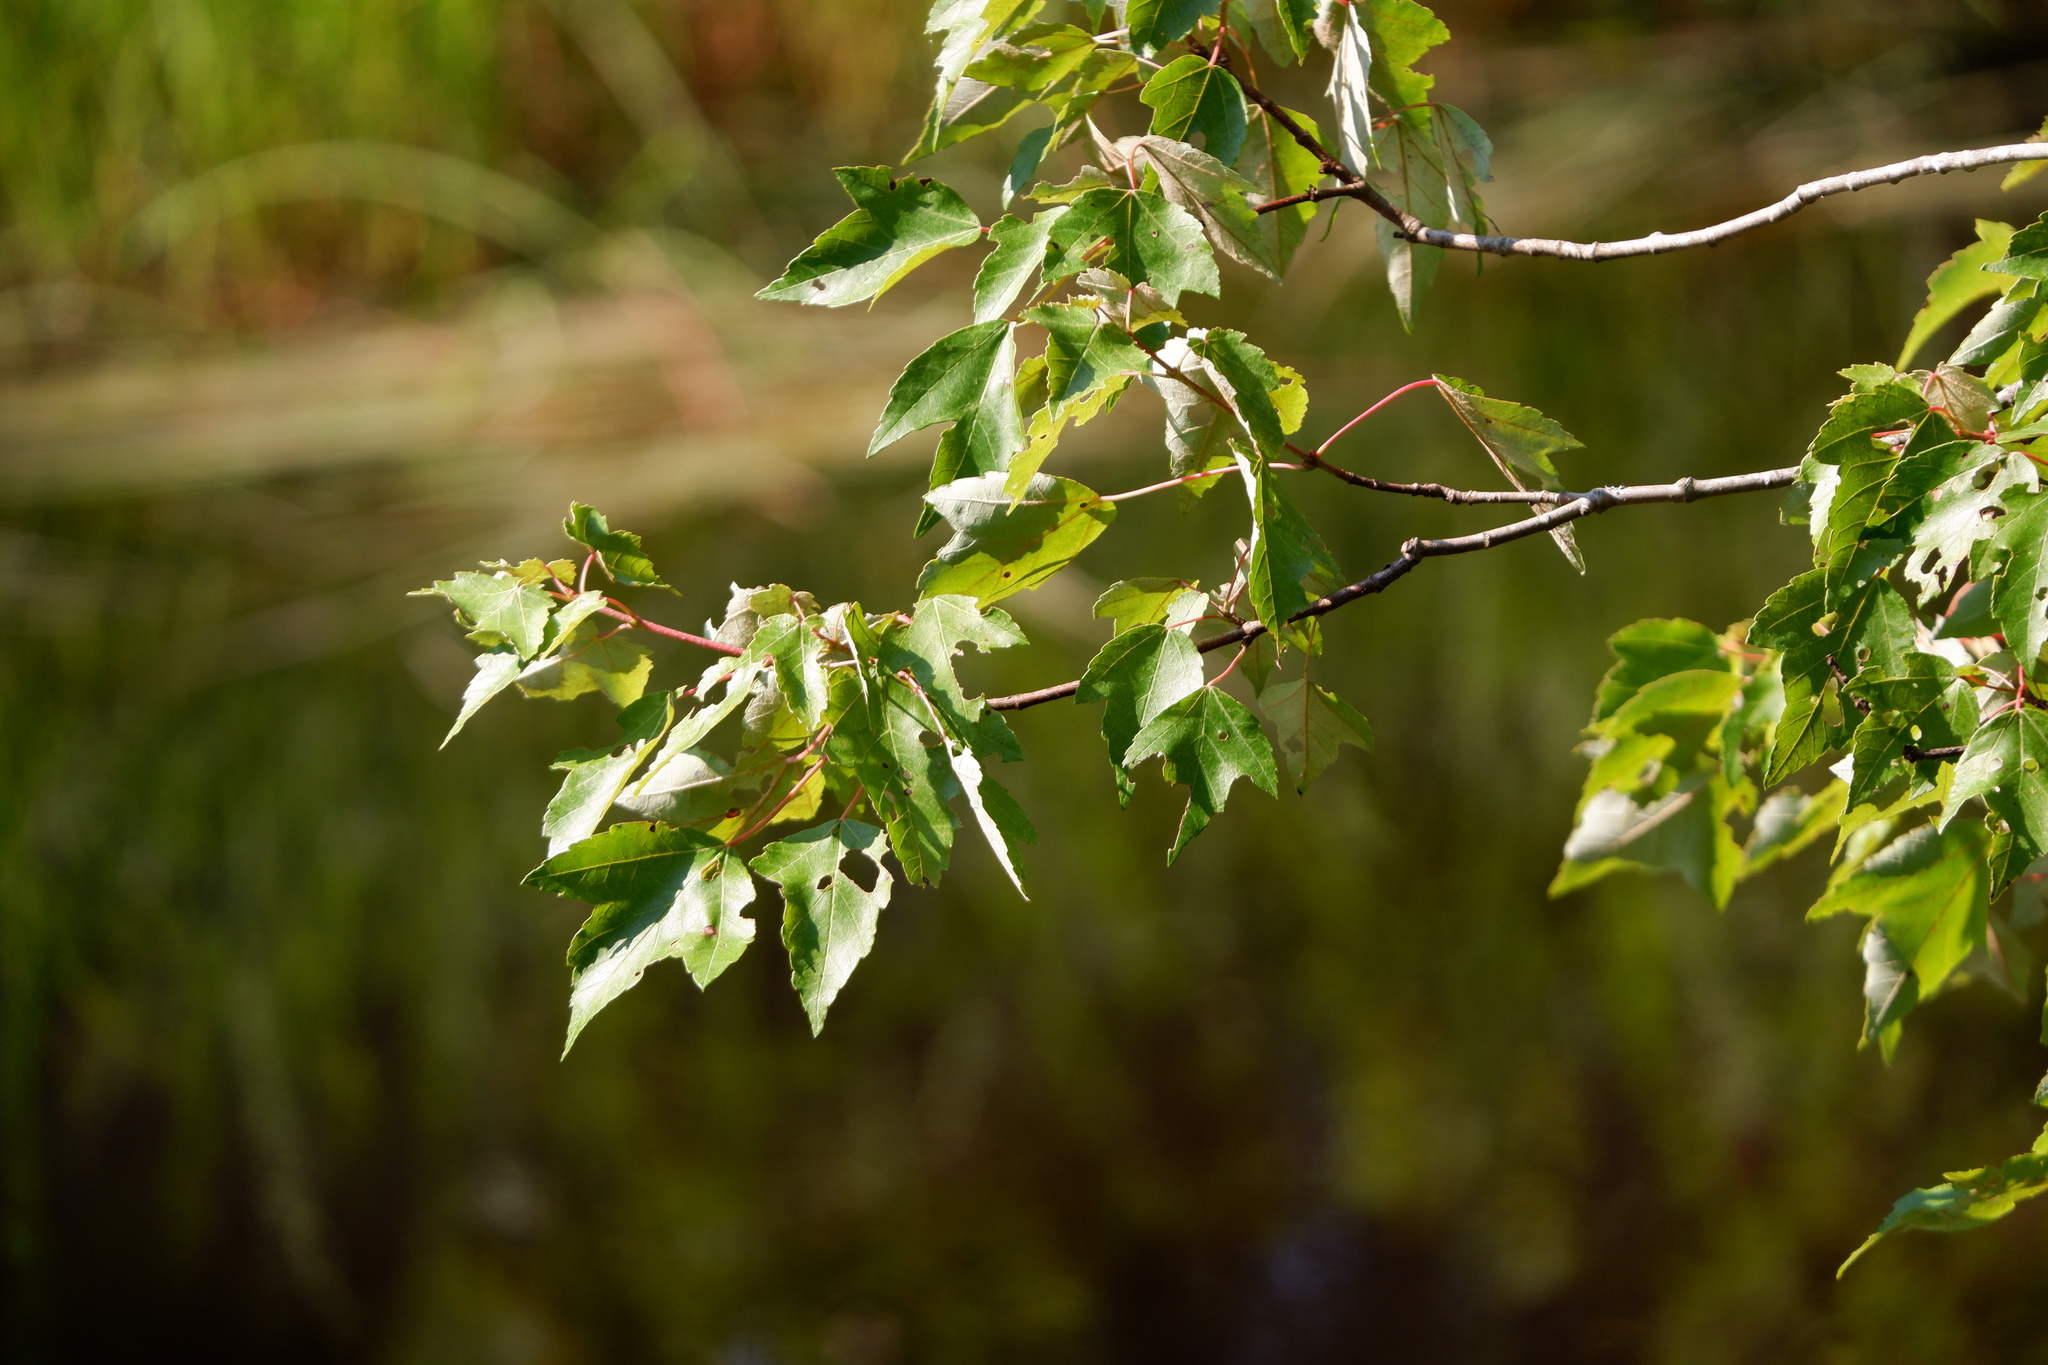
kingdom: Plantae
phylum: Tracheophyta
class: Magnoliopsida
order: Sapindales
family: Sapindaceae
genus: Acer
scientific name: Acer rubrum
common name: Red maple
